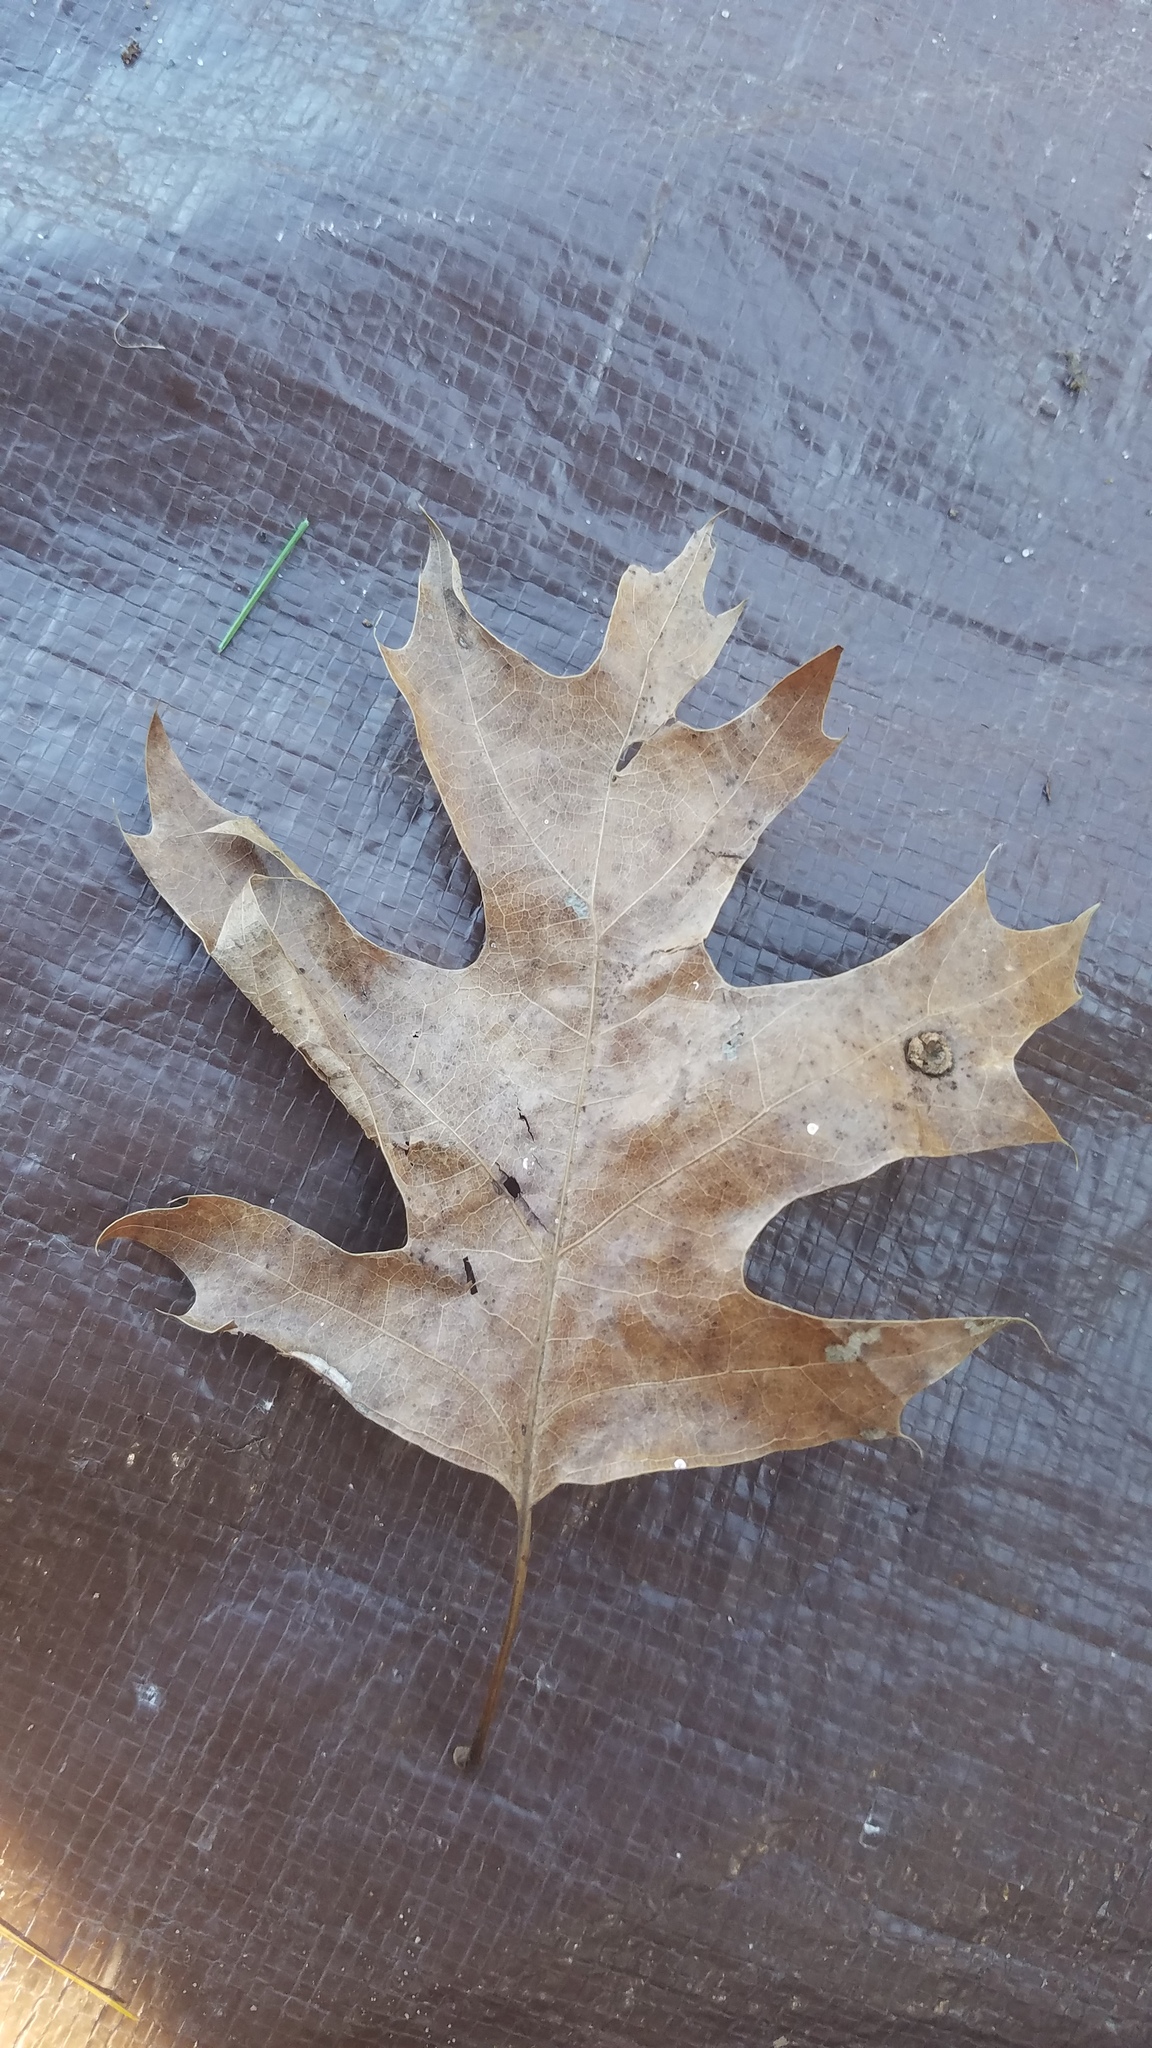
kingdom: Animalia
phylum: Arthropoda
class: Insecta
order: Diptera
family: Cecidomyiidae
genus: Polystepha
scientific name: Polystepha pilulae
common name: Oak leaf gall midge
